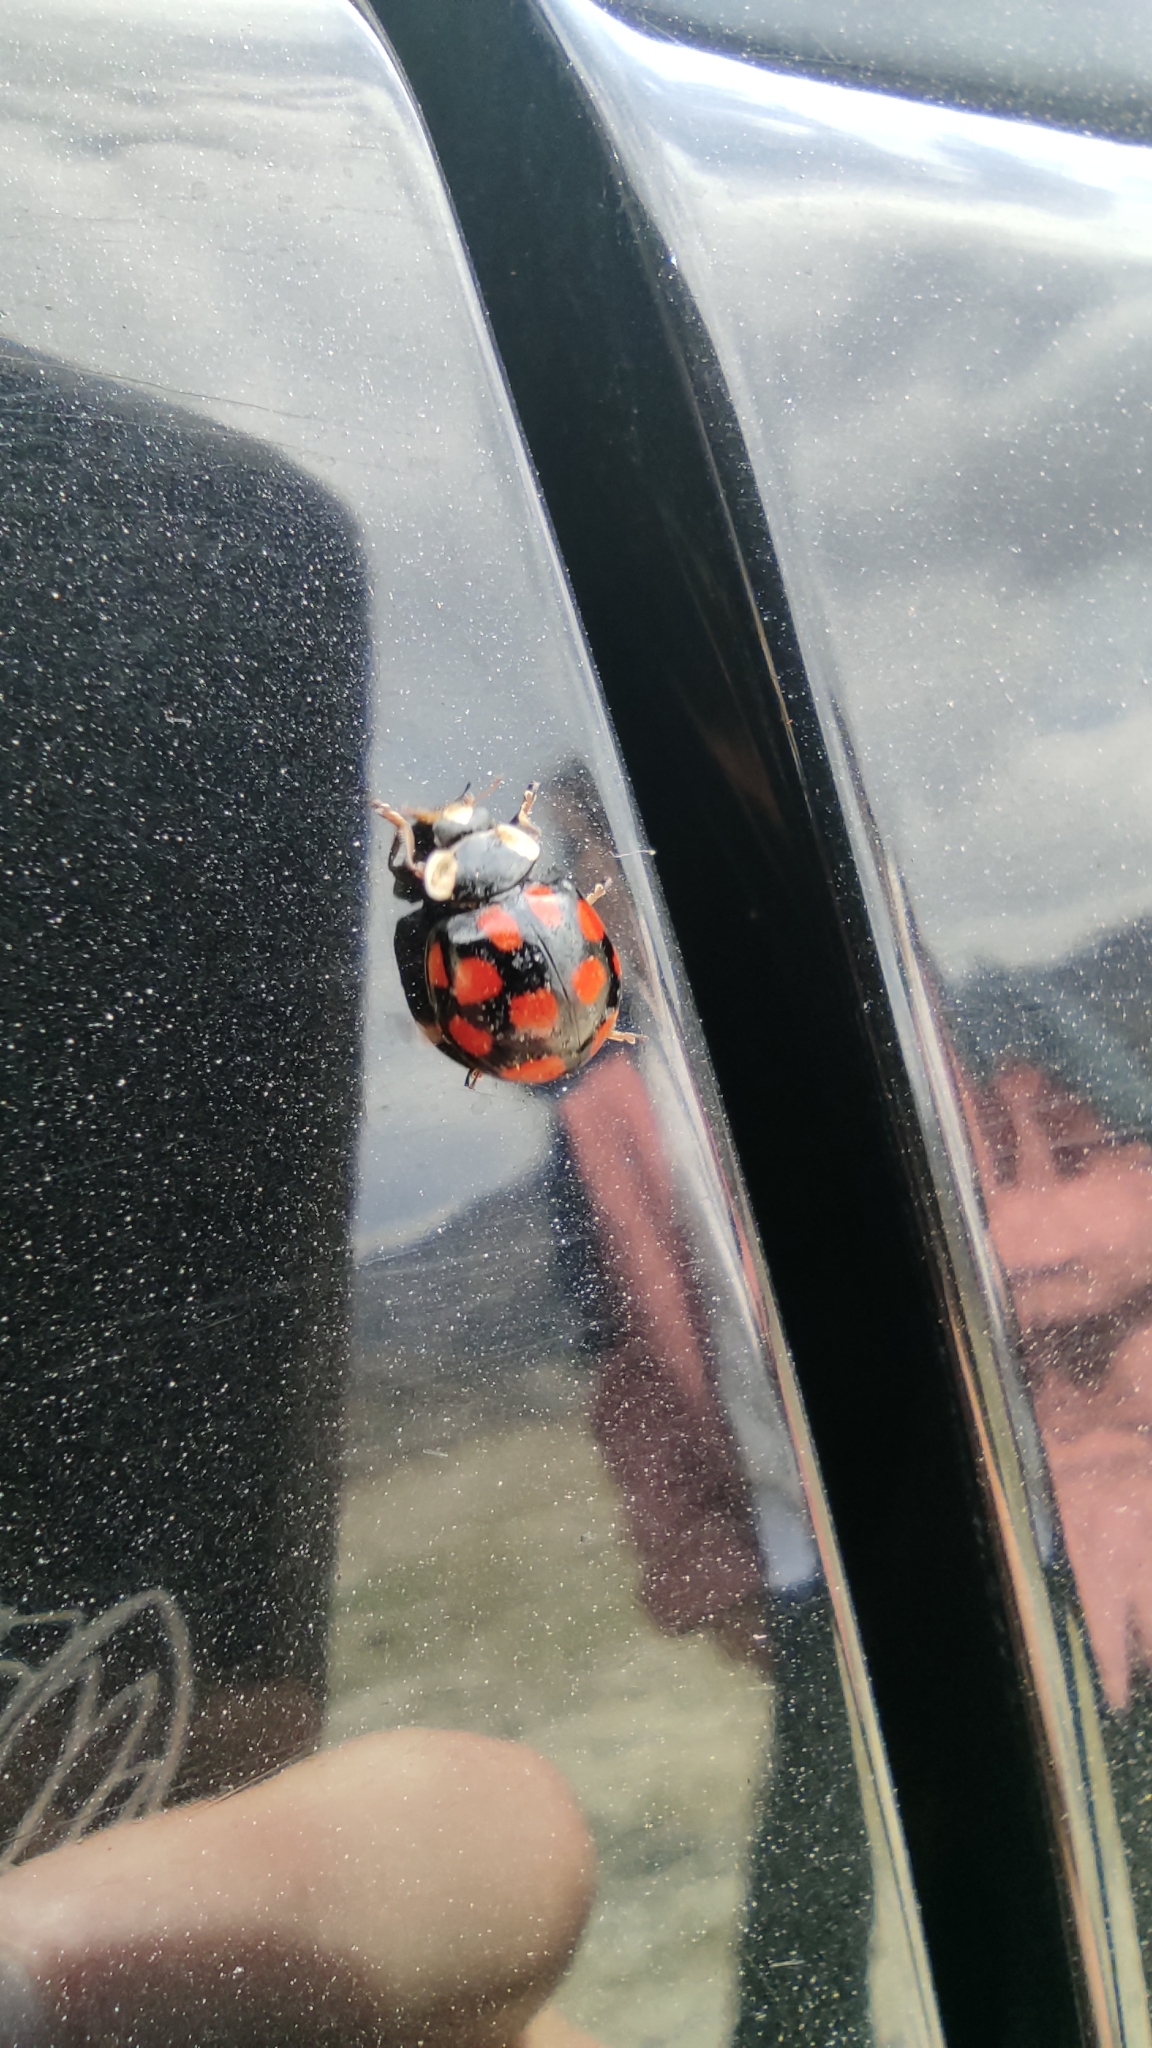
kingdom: Animalia
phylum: Arthropoda
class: Insecta
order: Coleoptera
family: Coccinellidae
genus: Harmonia
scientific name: Harmonia axyridis
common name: Harlequin ladybird
